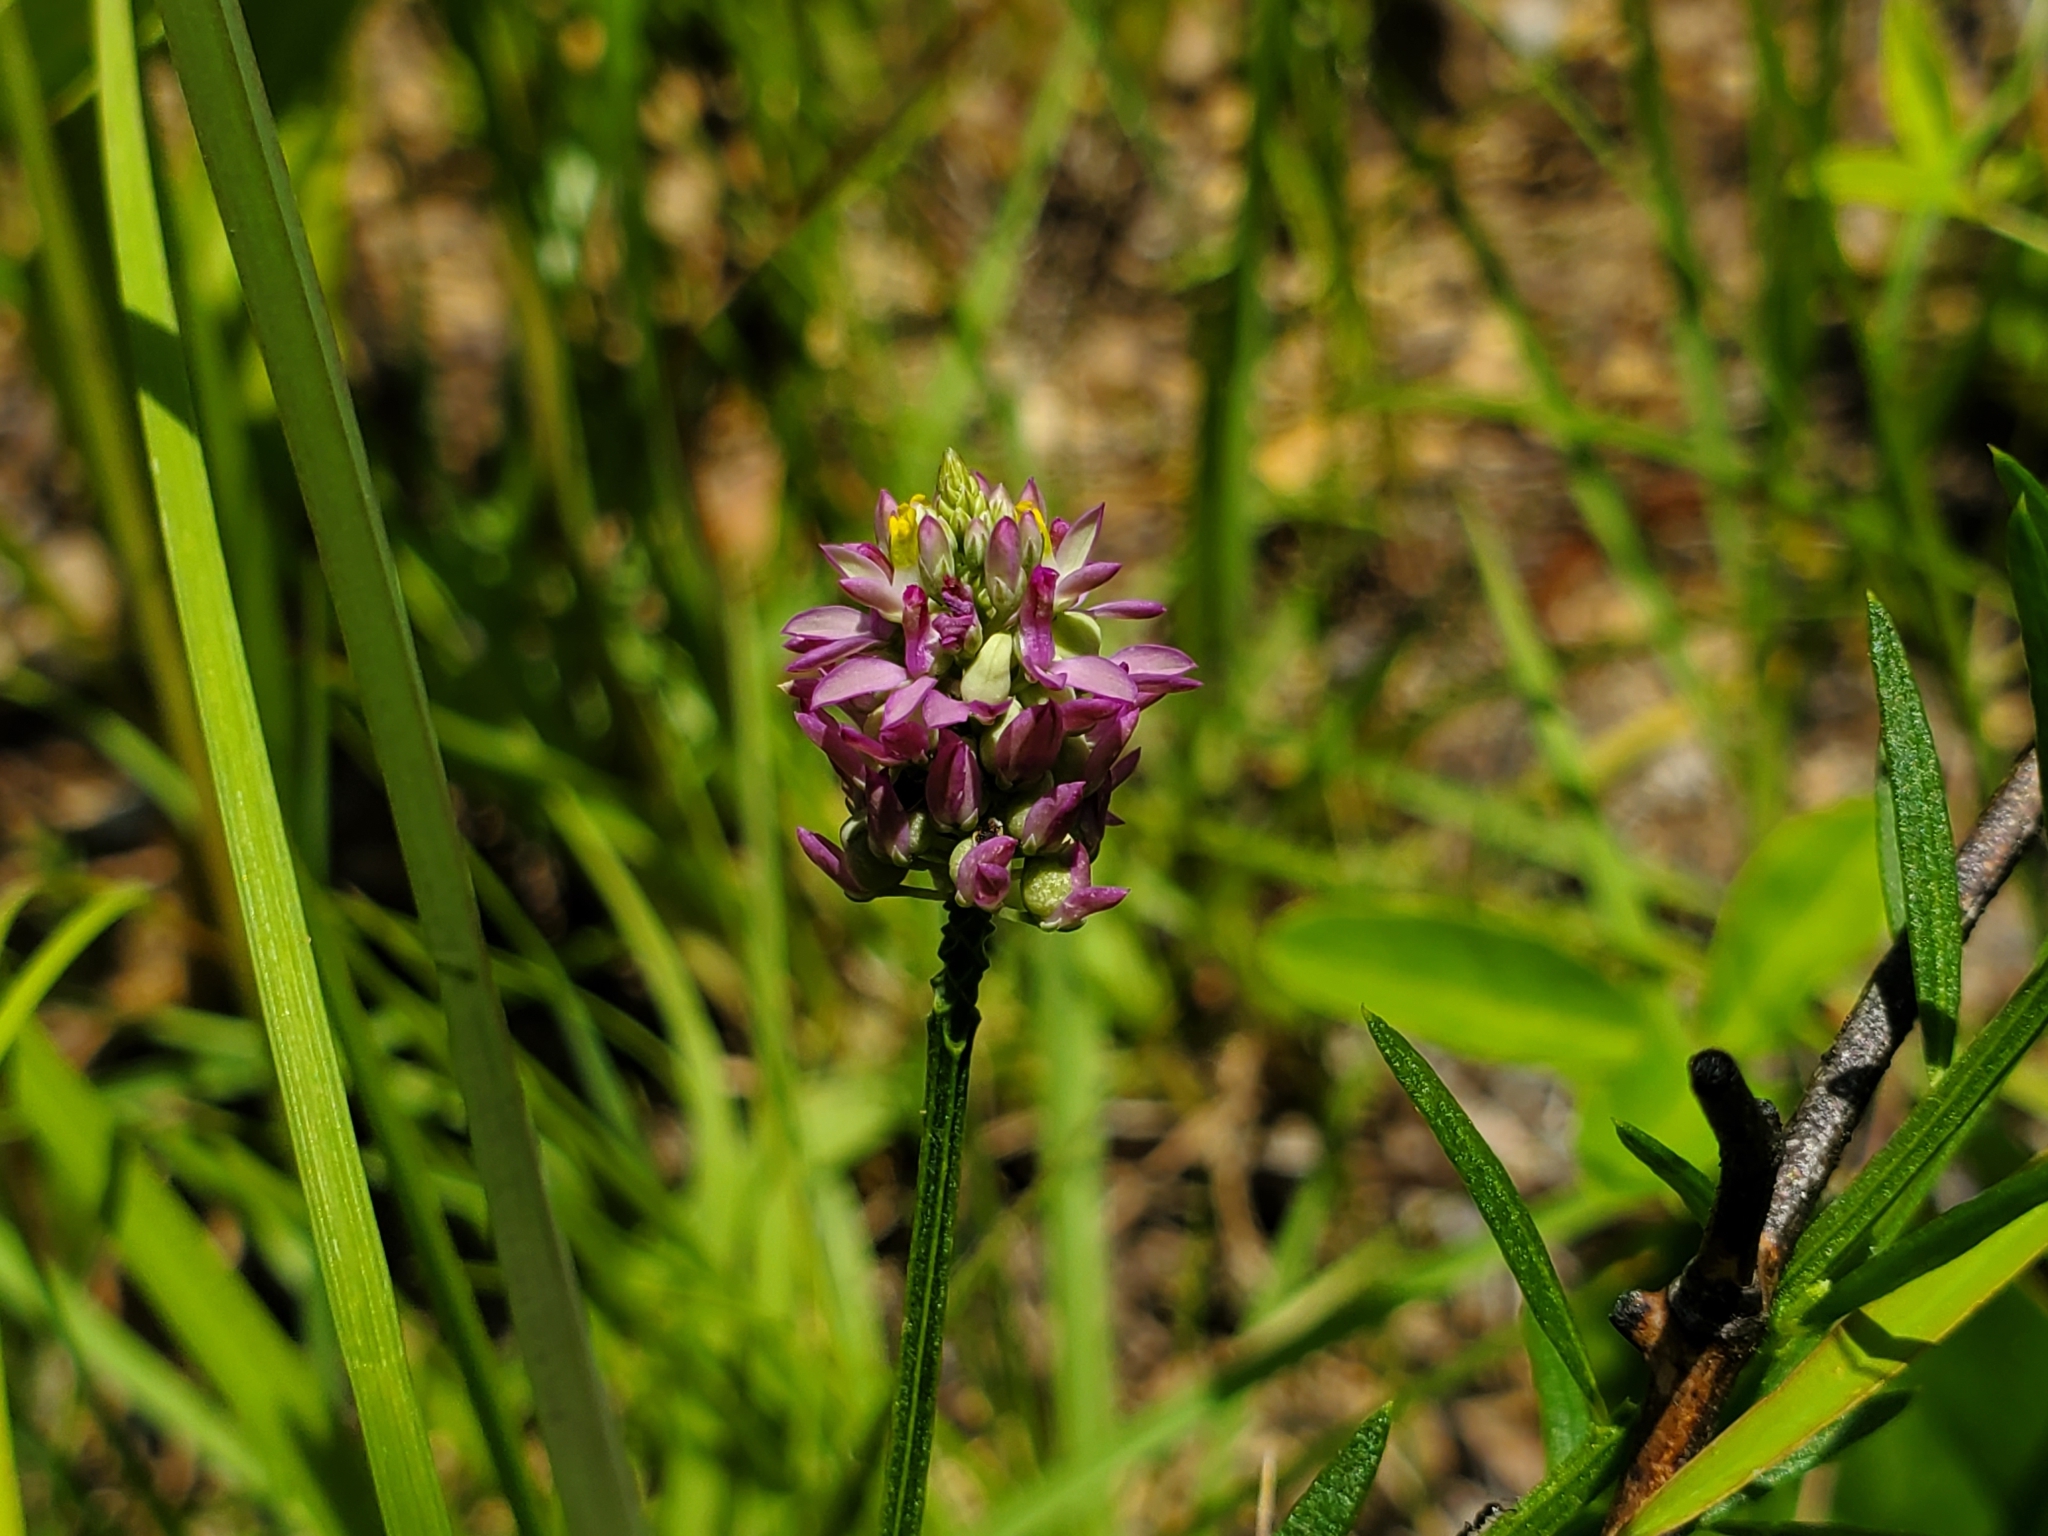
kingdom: Plantae
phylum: Tracheophyta
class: Magnoliopsida
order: Fabales
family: Polygalaceae
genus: Polygala
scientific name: Polygala mariana
